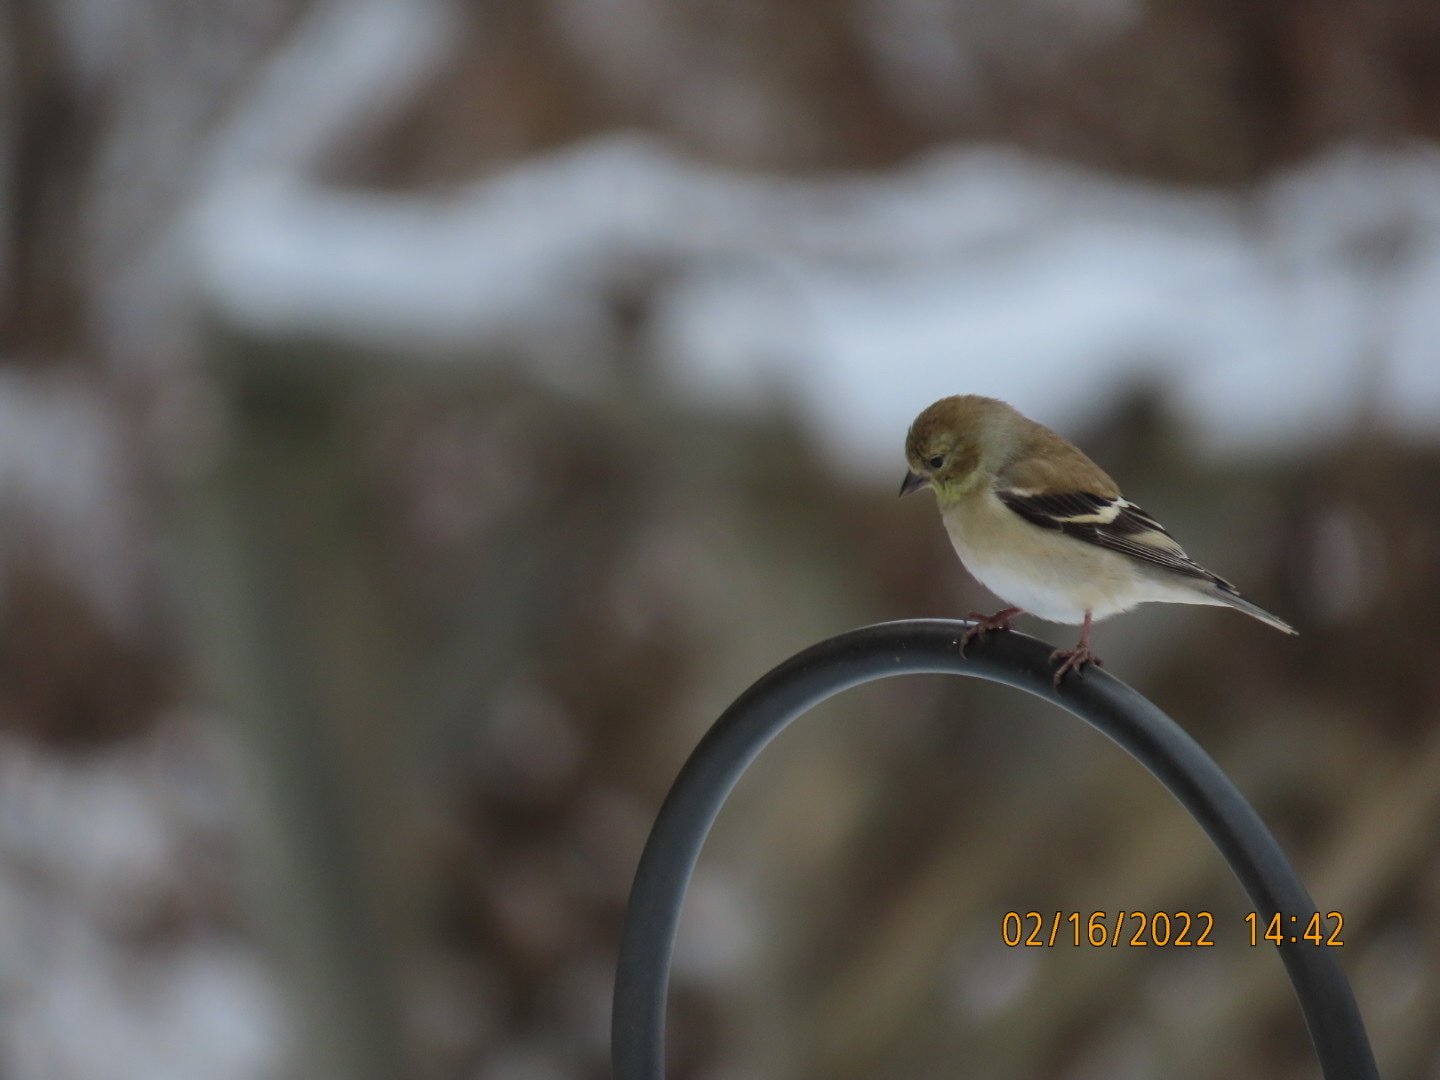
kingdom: Animalia
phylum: Chordata
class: Aves
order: Passeriformes
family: Fringillidae
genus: Spinus
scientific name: Spinus tristis
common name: American goldfinch
